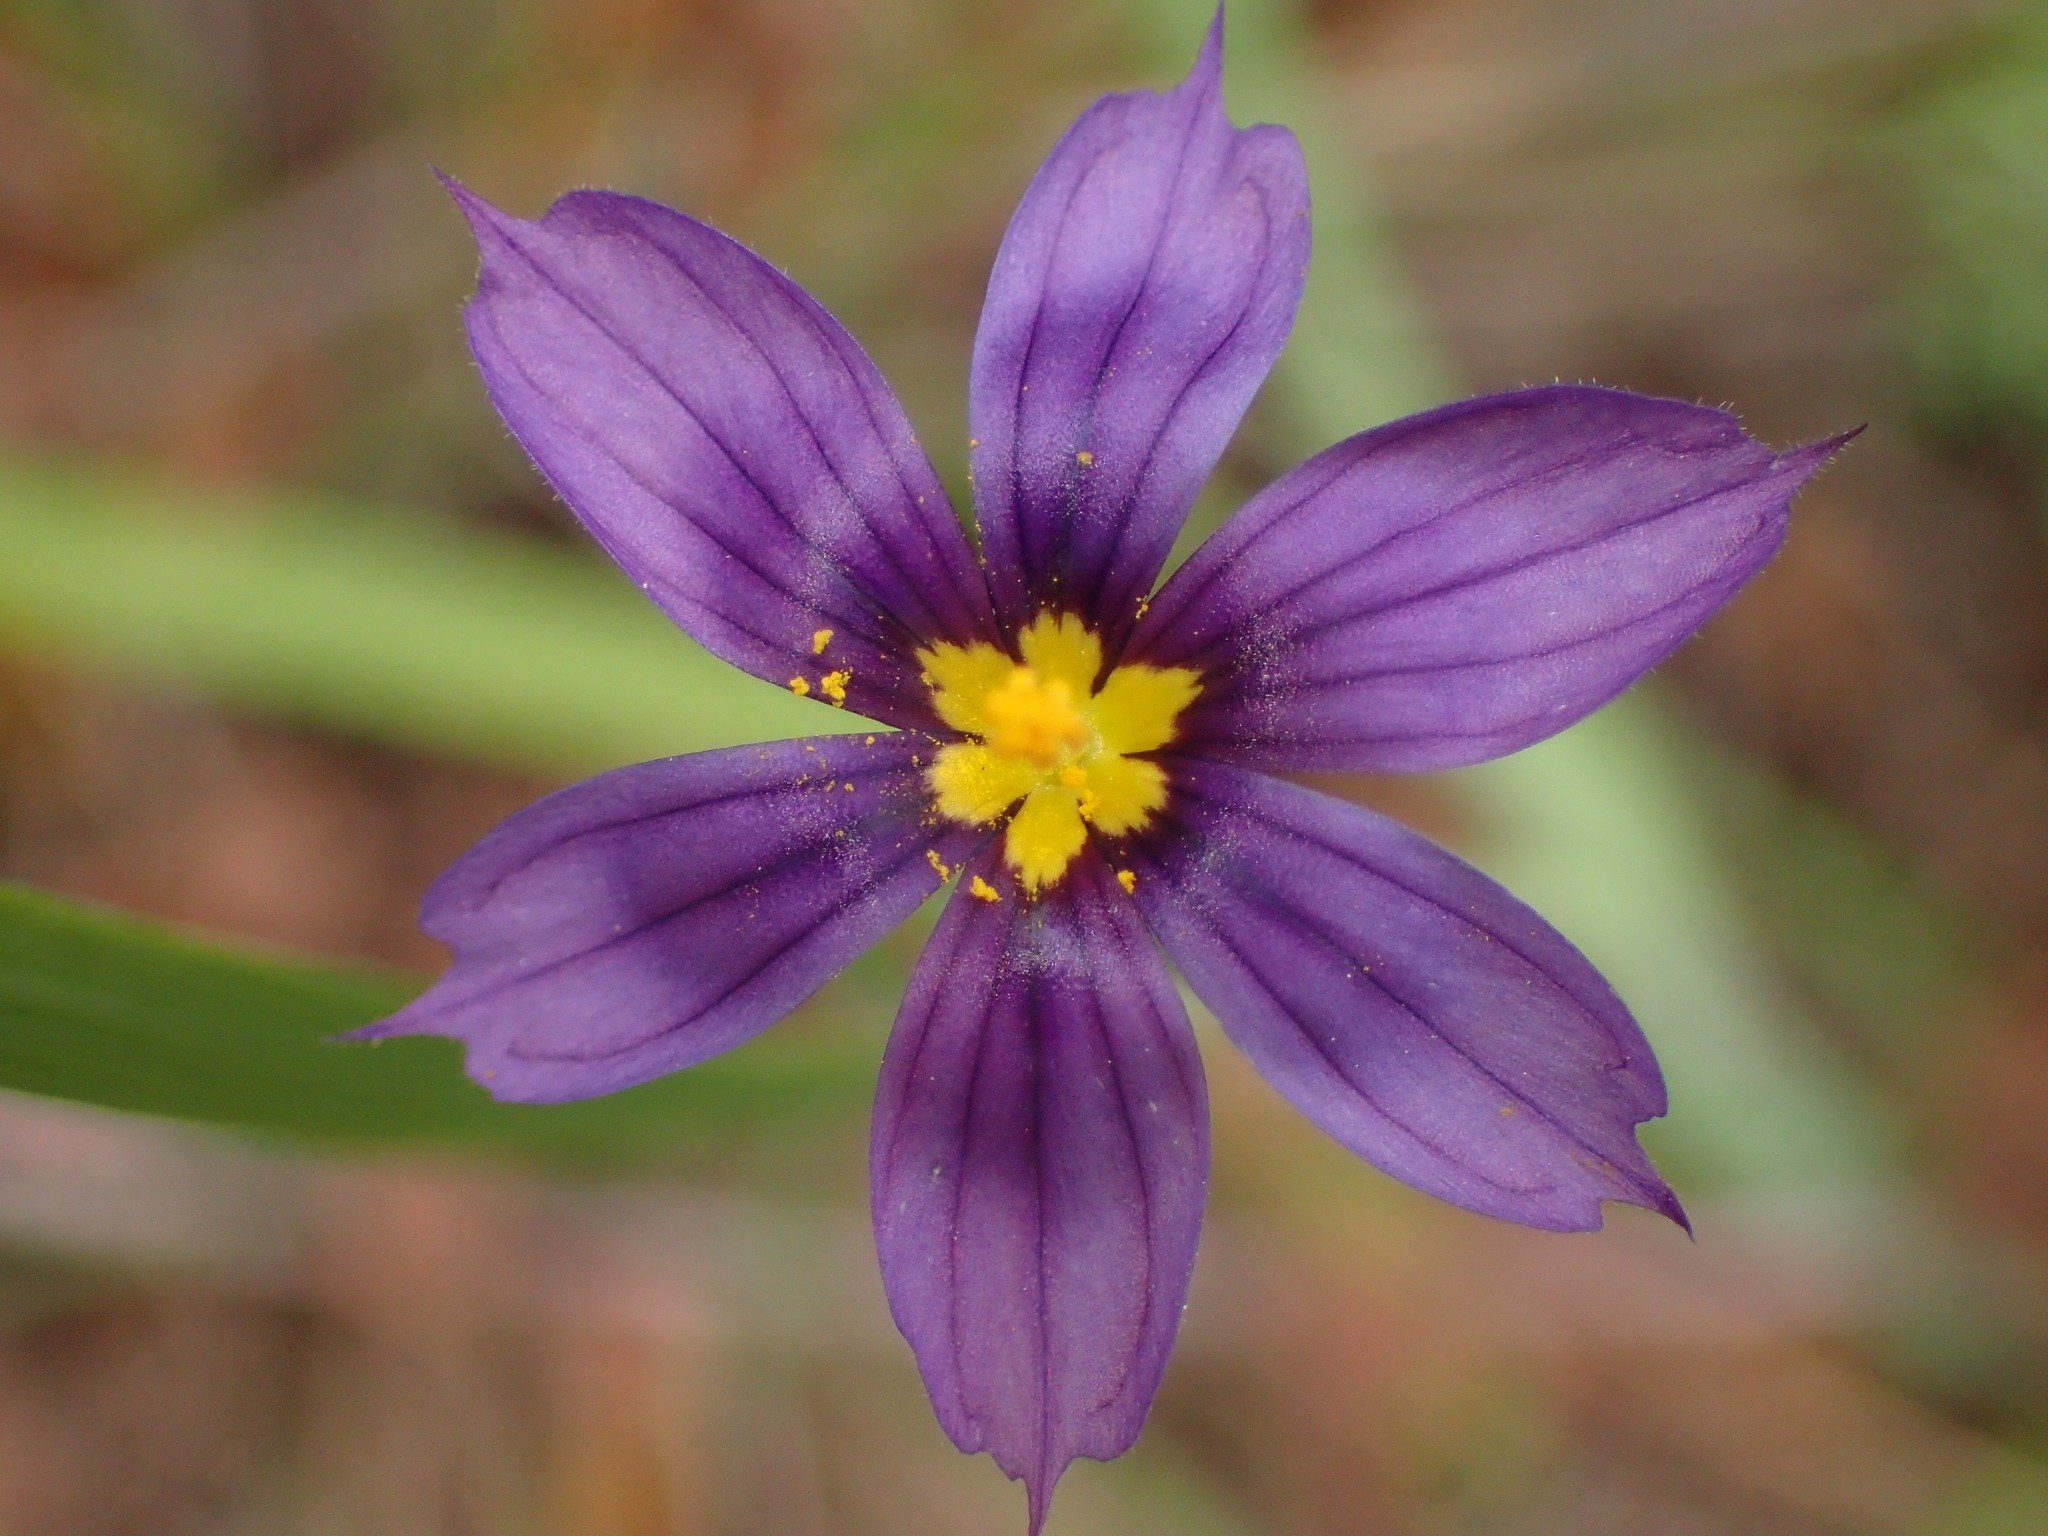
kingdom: Plantae
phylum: Tracheophyta
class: Liliopsida
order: Asparagales
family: Iridaceae
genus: Sisyrinchium
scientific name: Sisyrinchium bellum
